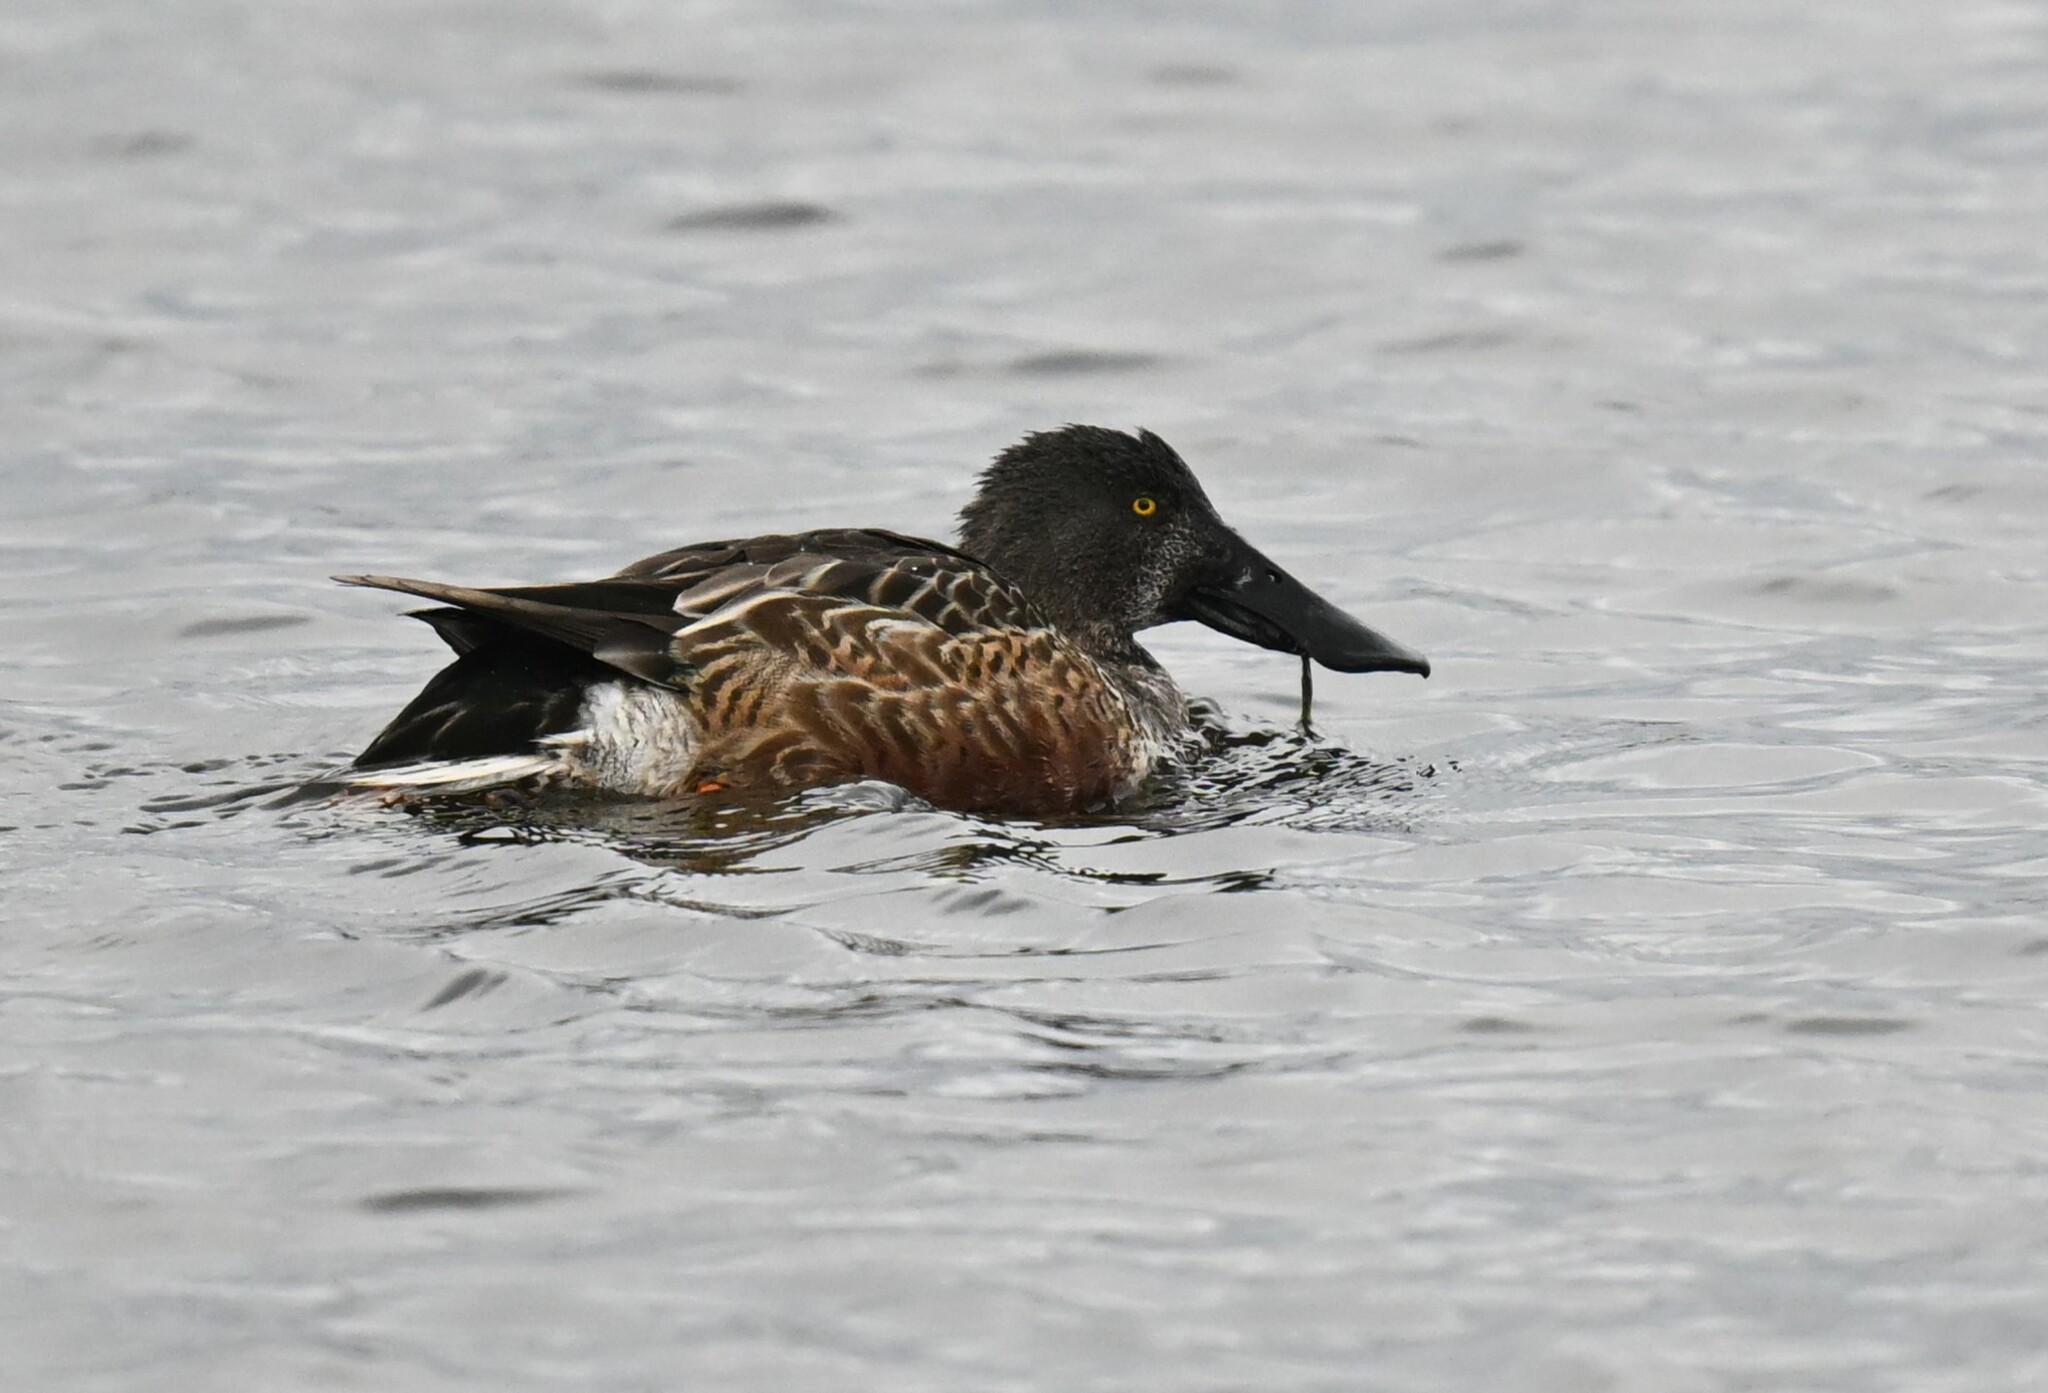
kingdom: Animalia
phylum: Chordata
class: Aves
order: Anseriformes
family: Anatidae
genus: Spatula
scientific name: Spatula clypeata
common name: Northern shoveler
